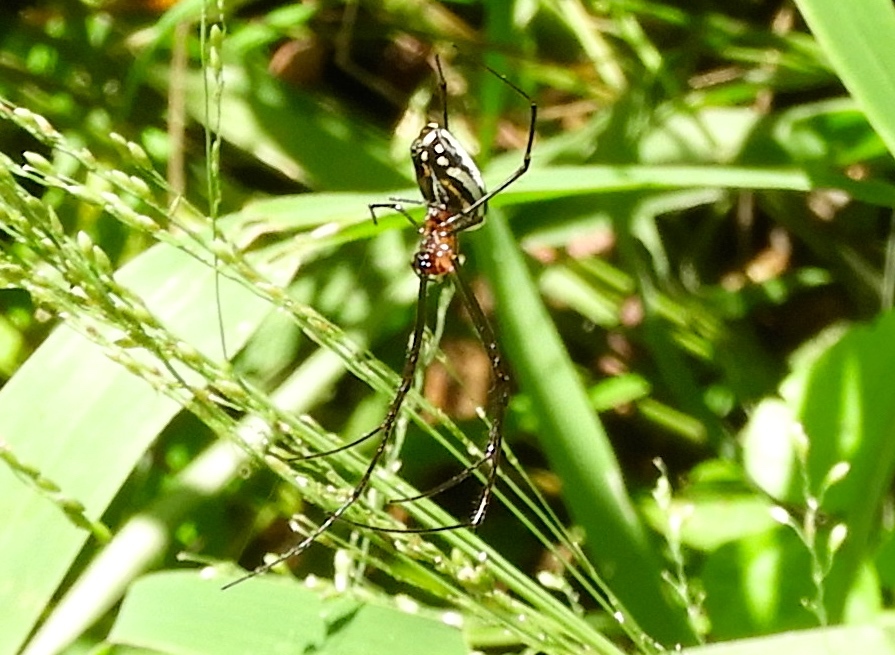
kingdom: Animalia
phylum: Arthropoda
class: Arachnida
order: Araneae
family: Tetragnathidae
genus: Leucauge
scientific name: Leucauge
